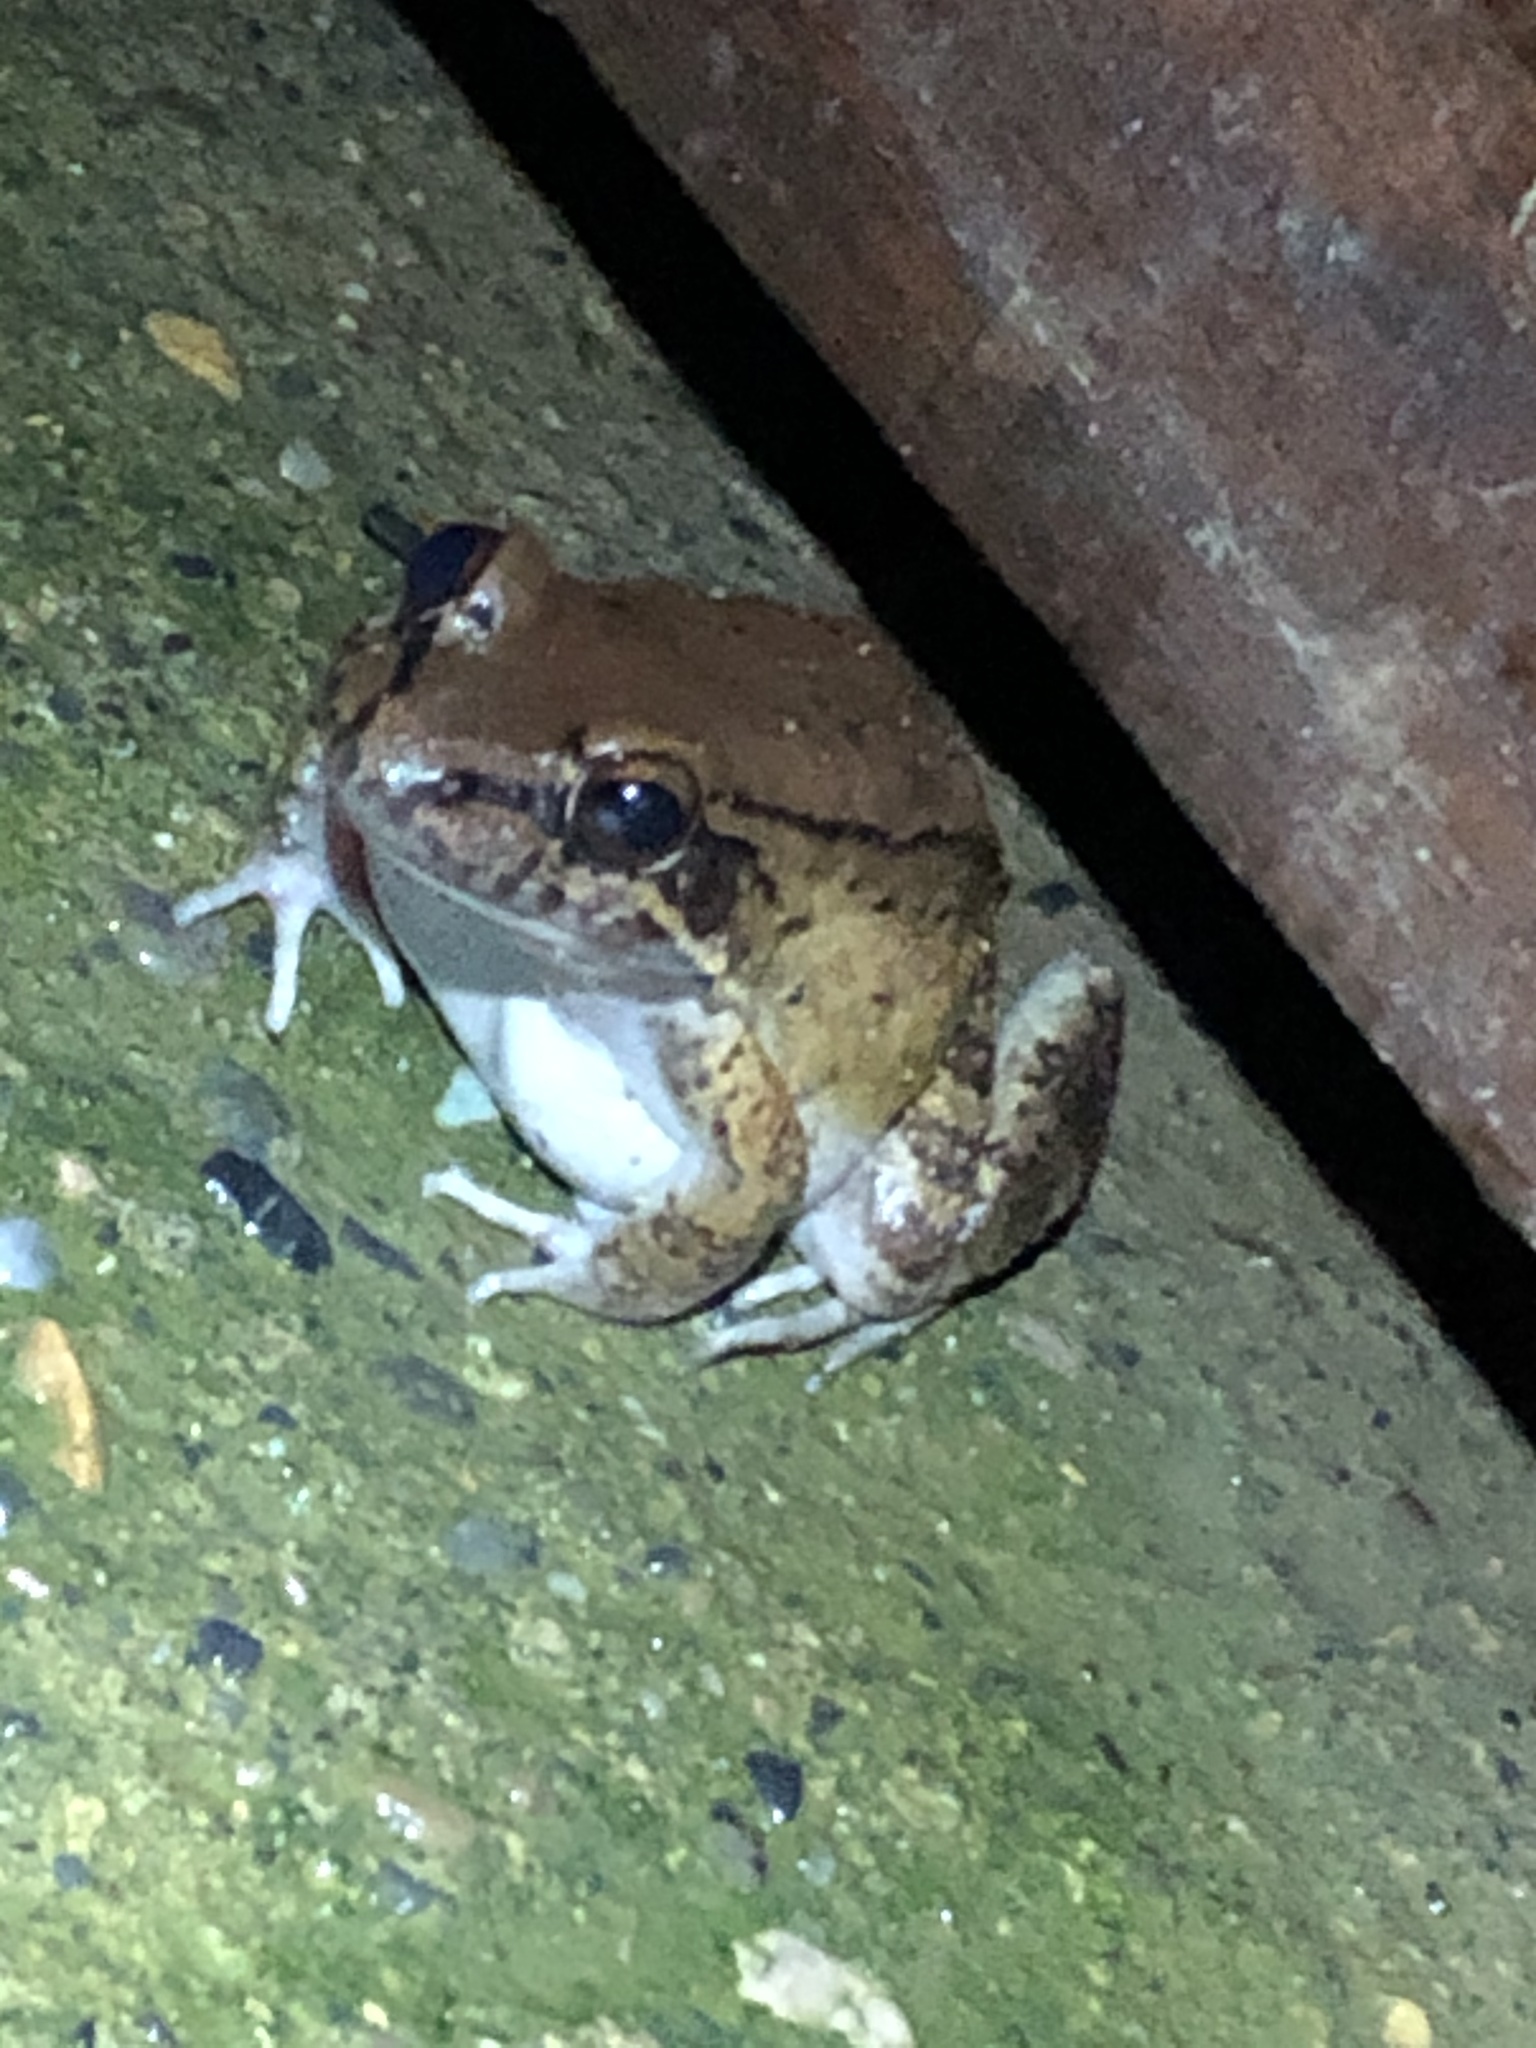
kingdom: Animalia
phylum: Chordata
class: Amphibia
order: Anura
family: Leptodactylidae
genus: Leptodactylus
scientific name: Leptodactylus rhodonotus
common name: Peru white-lipped frog
